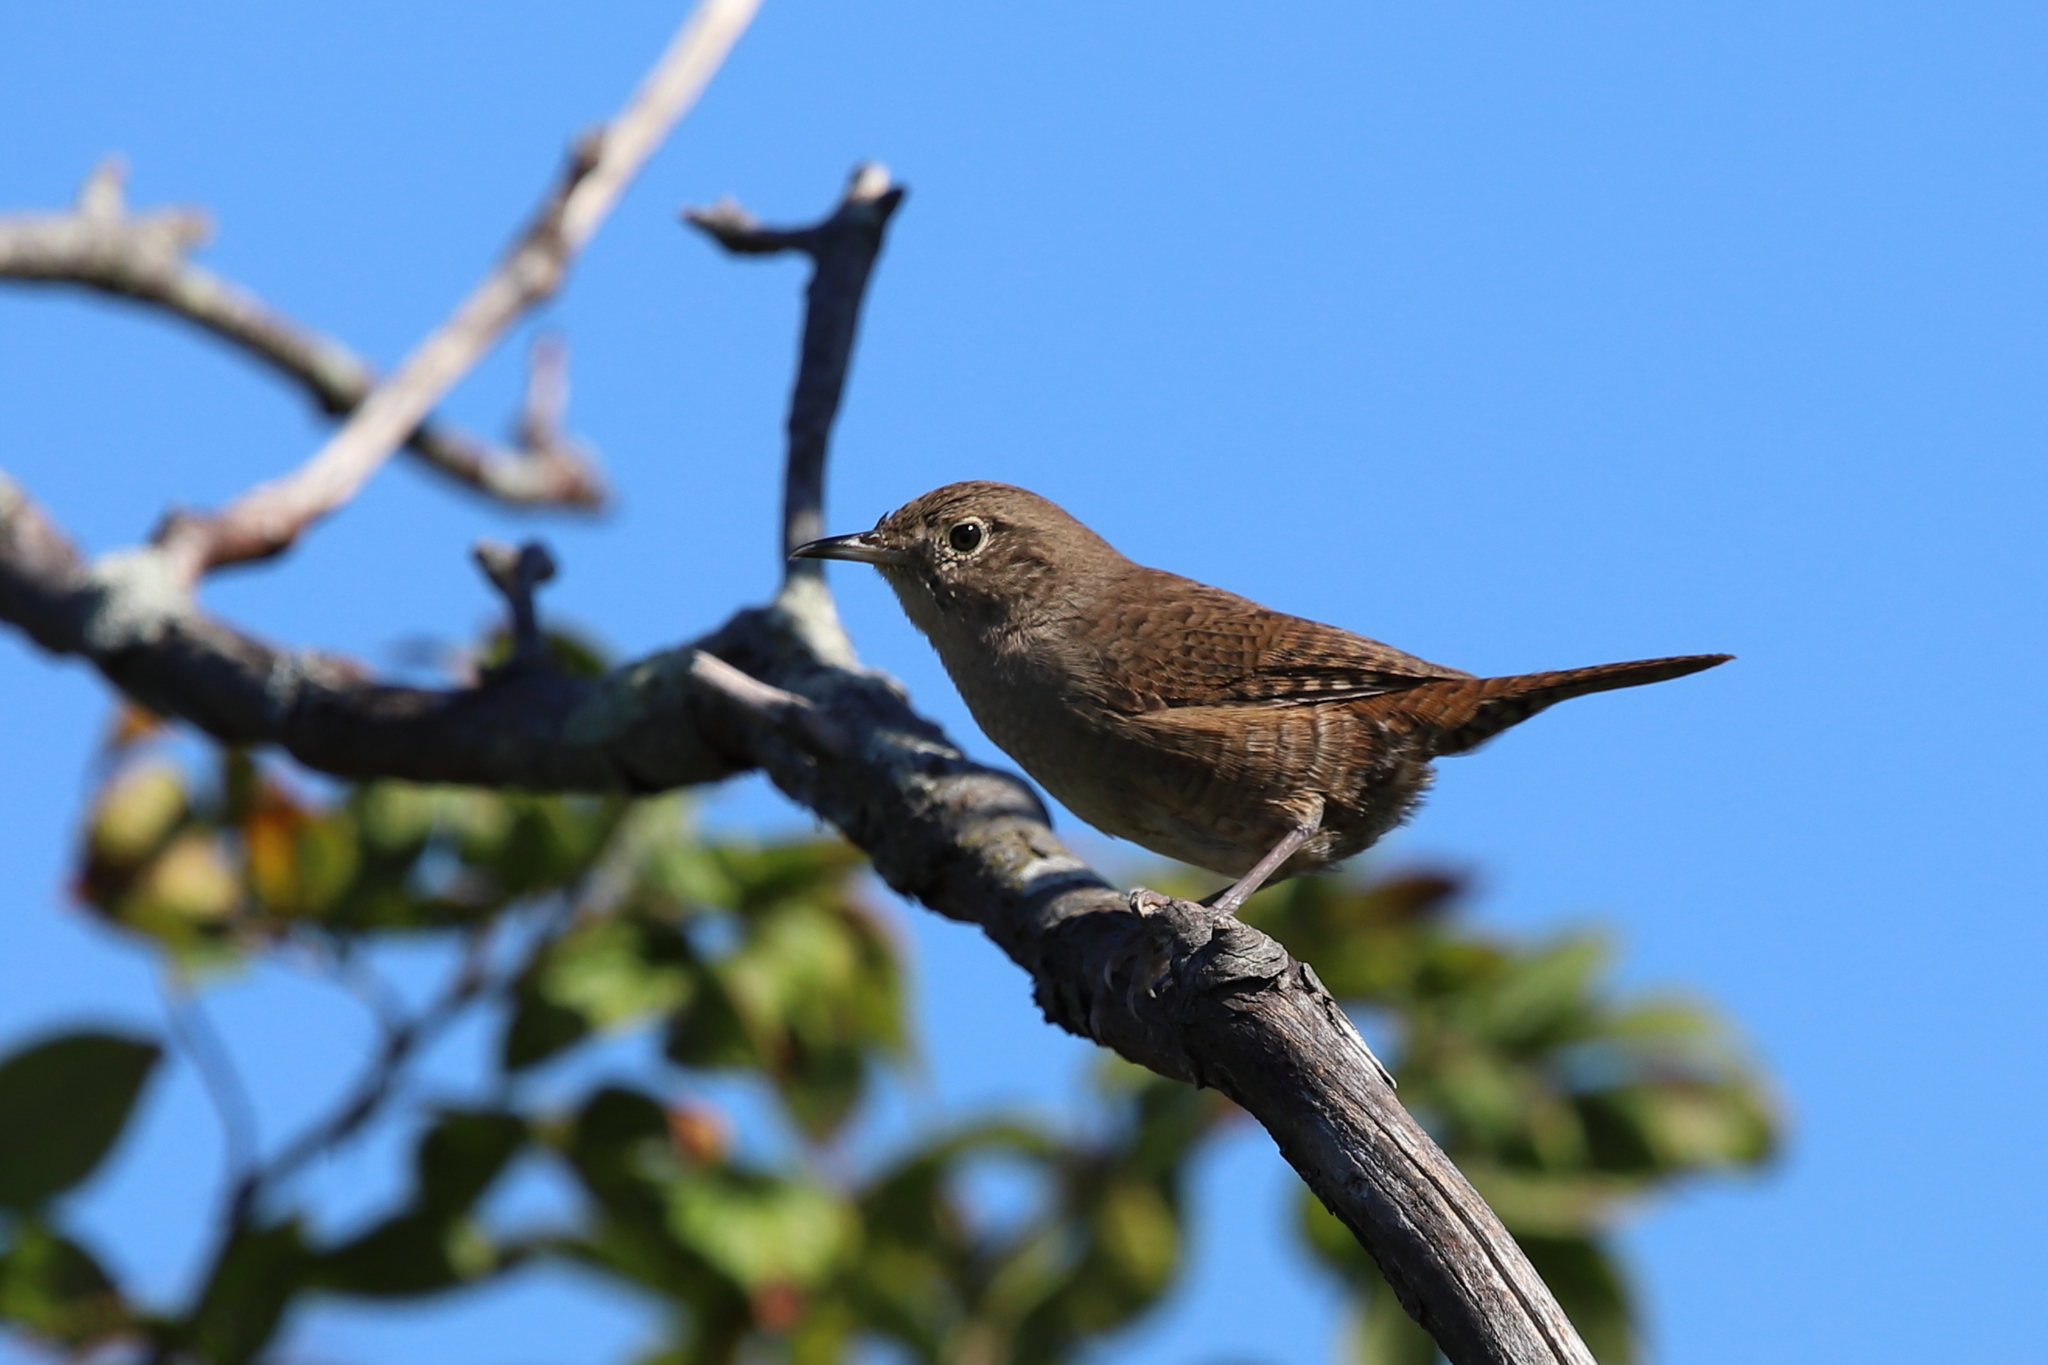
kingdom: Animalia
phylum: Chordata
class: Aves
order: Passeriformes
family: Troglodytidae
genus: Troglodytes
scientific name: Troglodytes aedon
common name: House wren
